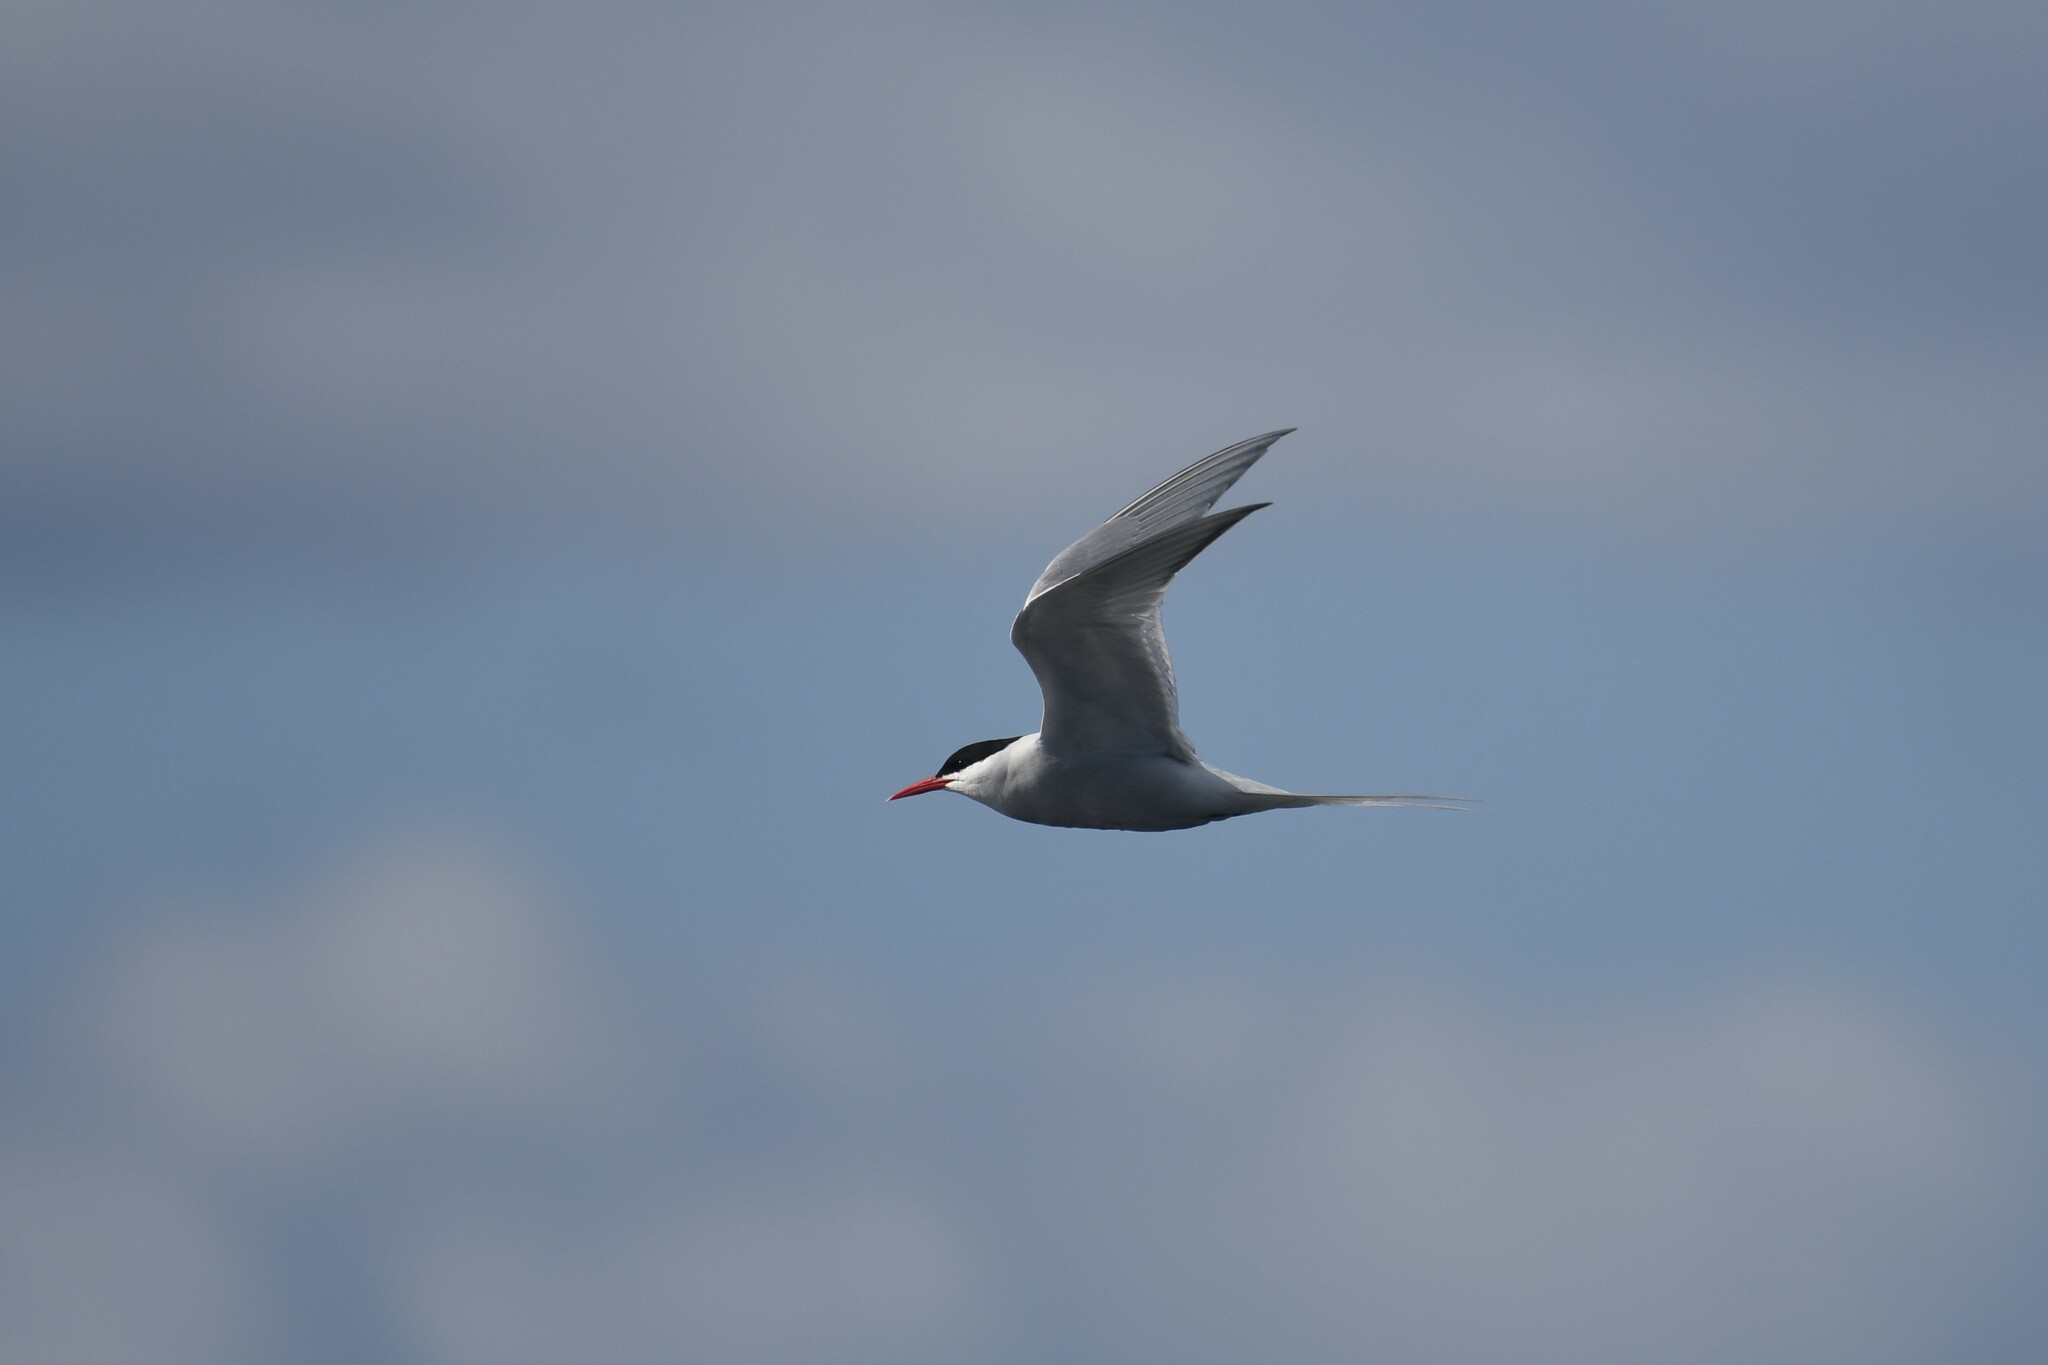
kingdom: Animalia
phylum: Chordata
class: Aves
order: Charadriiformes
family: Laridae
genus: Sterna
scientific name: Sterna hirundinacea
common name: South american tern
